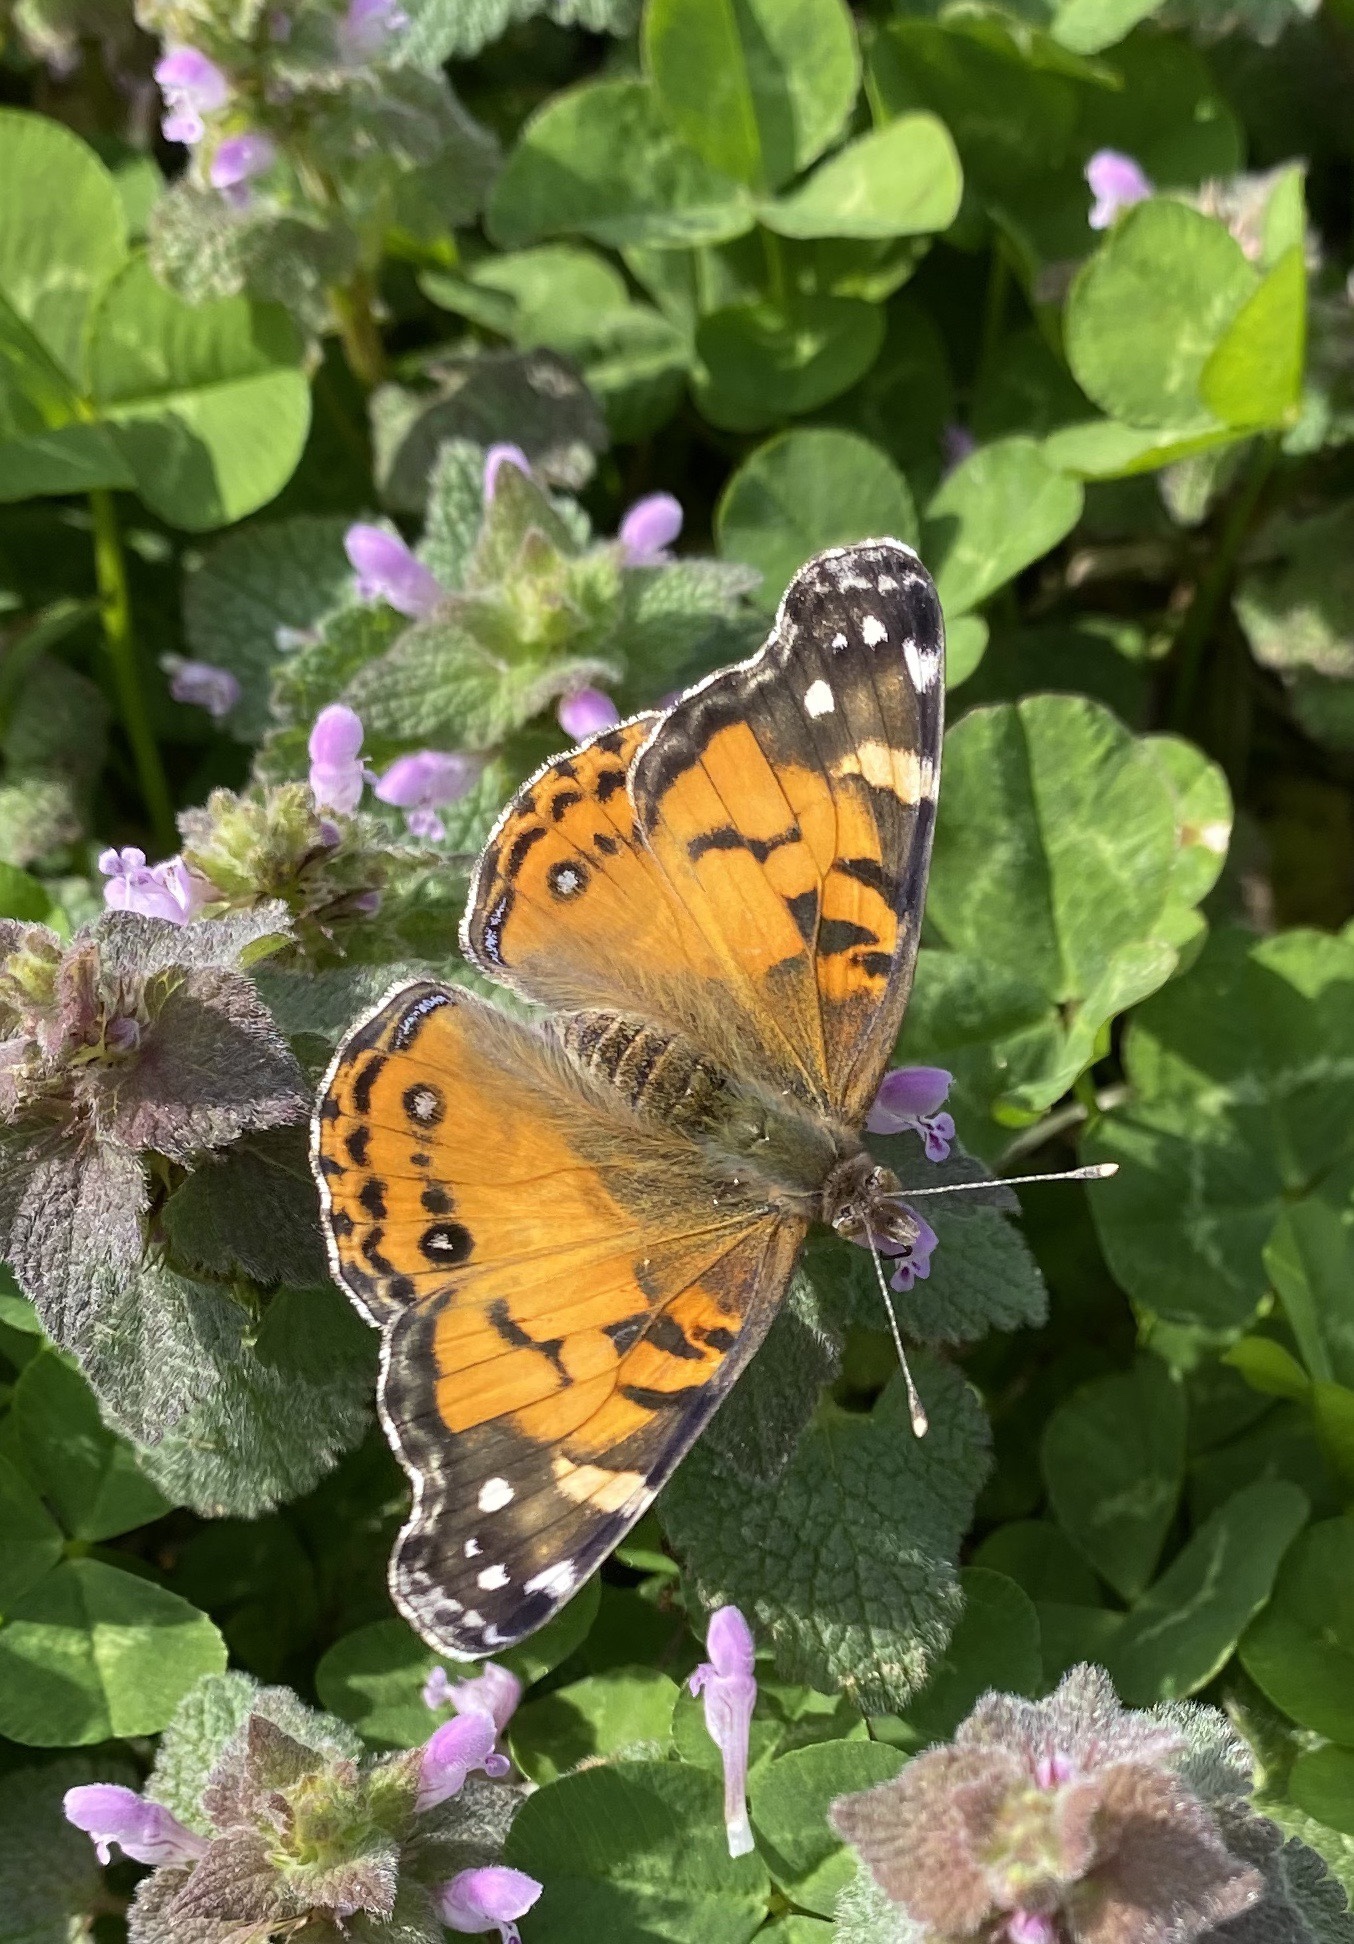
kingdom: Animalia
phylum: Arthropoda
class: Insecta
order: Lepidoptera
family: Nymphalidae
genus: Vanessa
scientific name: Vanessa virginiensis
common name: American lady
